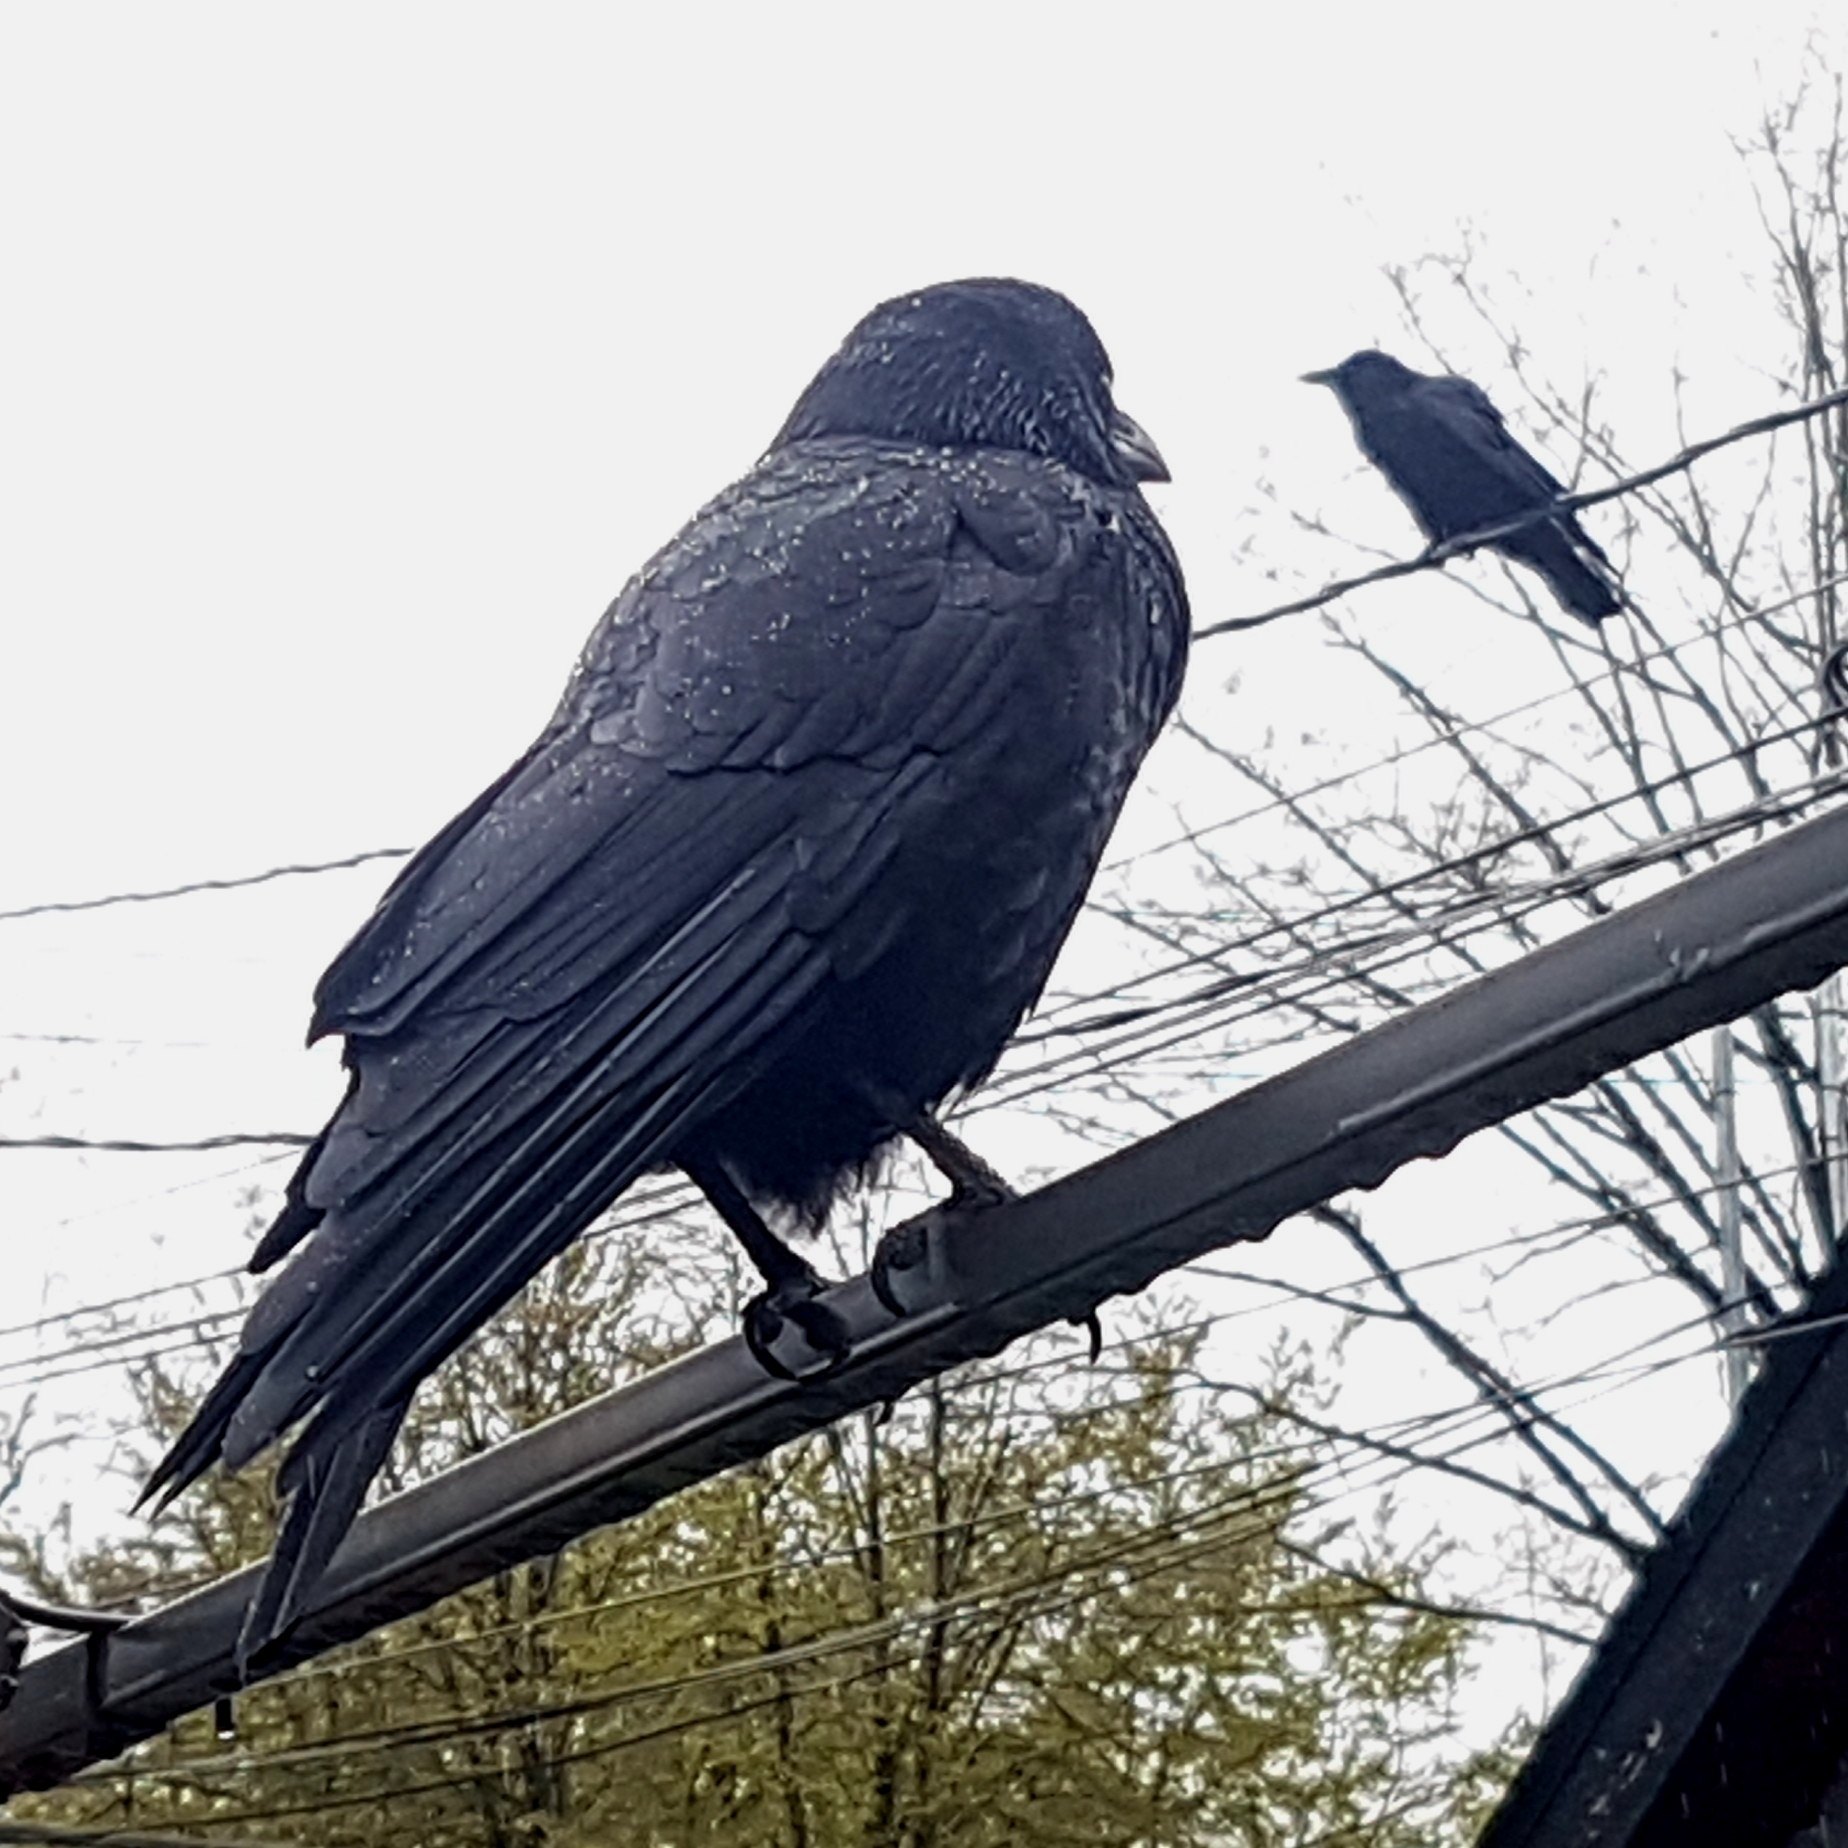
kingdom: Animalia
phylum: Chordata
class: Aves
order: Passeriformes
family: Corvidae
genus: Corvus
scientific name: Corvus brachyrhynchos
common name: American crow
